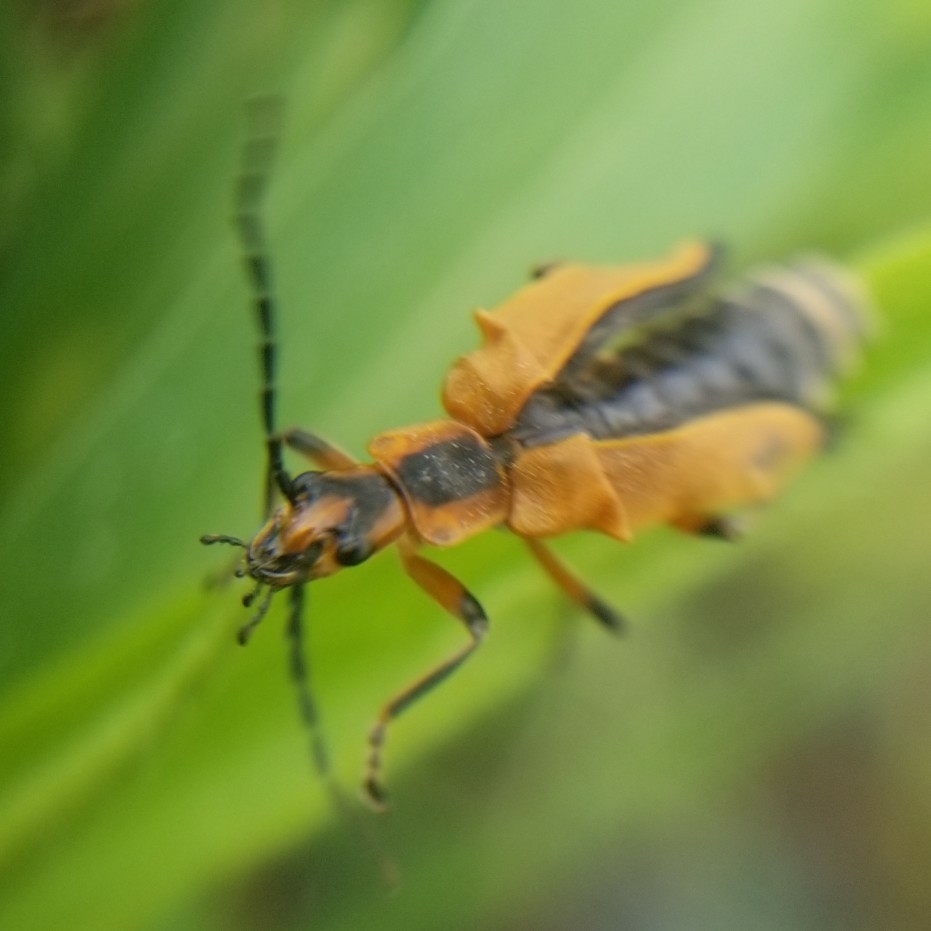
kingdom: Animalia
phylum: Arthropoda
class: Insecta
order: Coleoptera
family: Cantharidae
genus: Chauliognathus
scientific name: Chauliognathus marginatus
